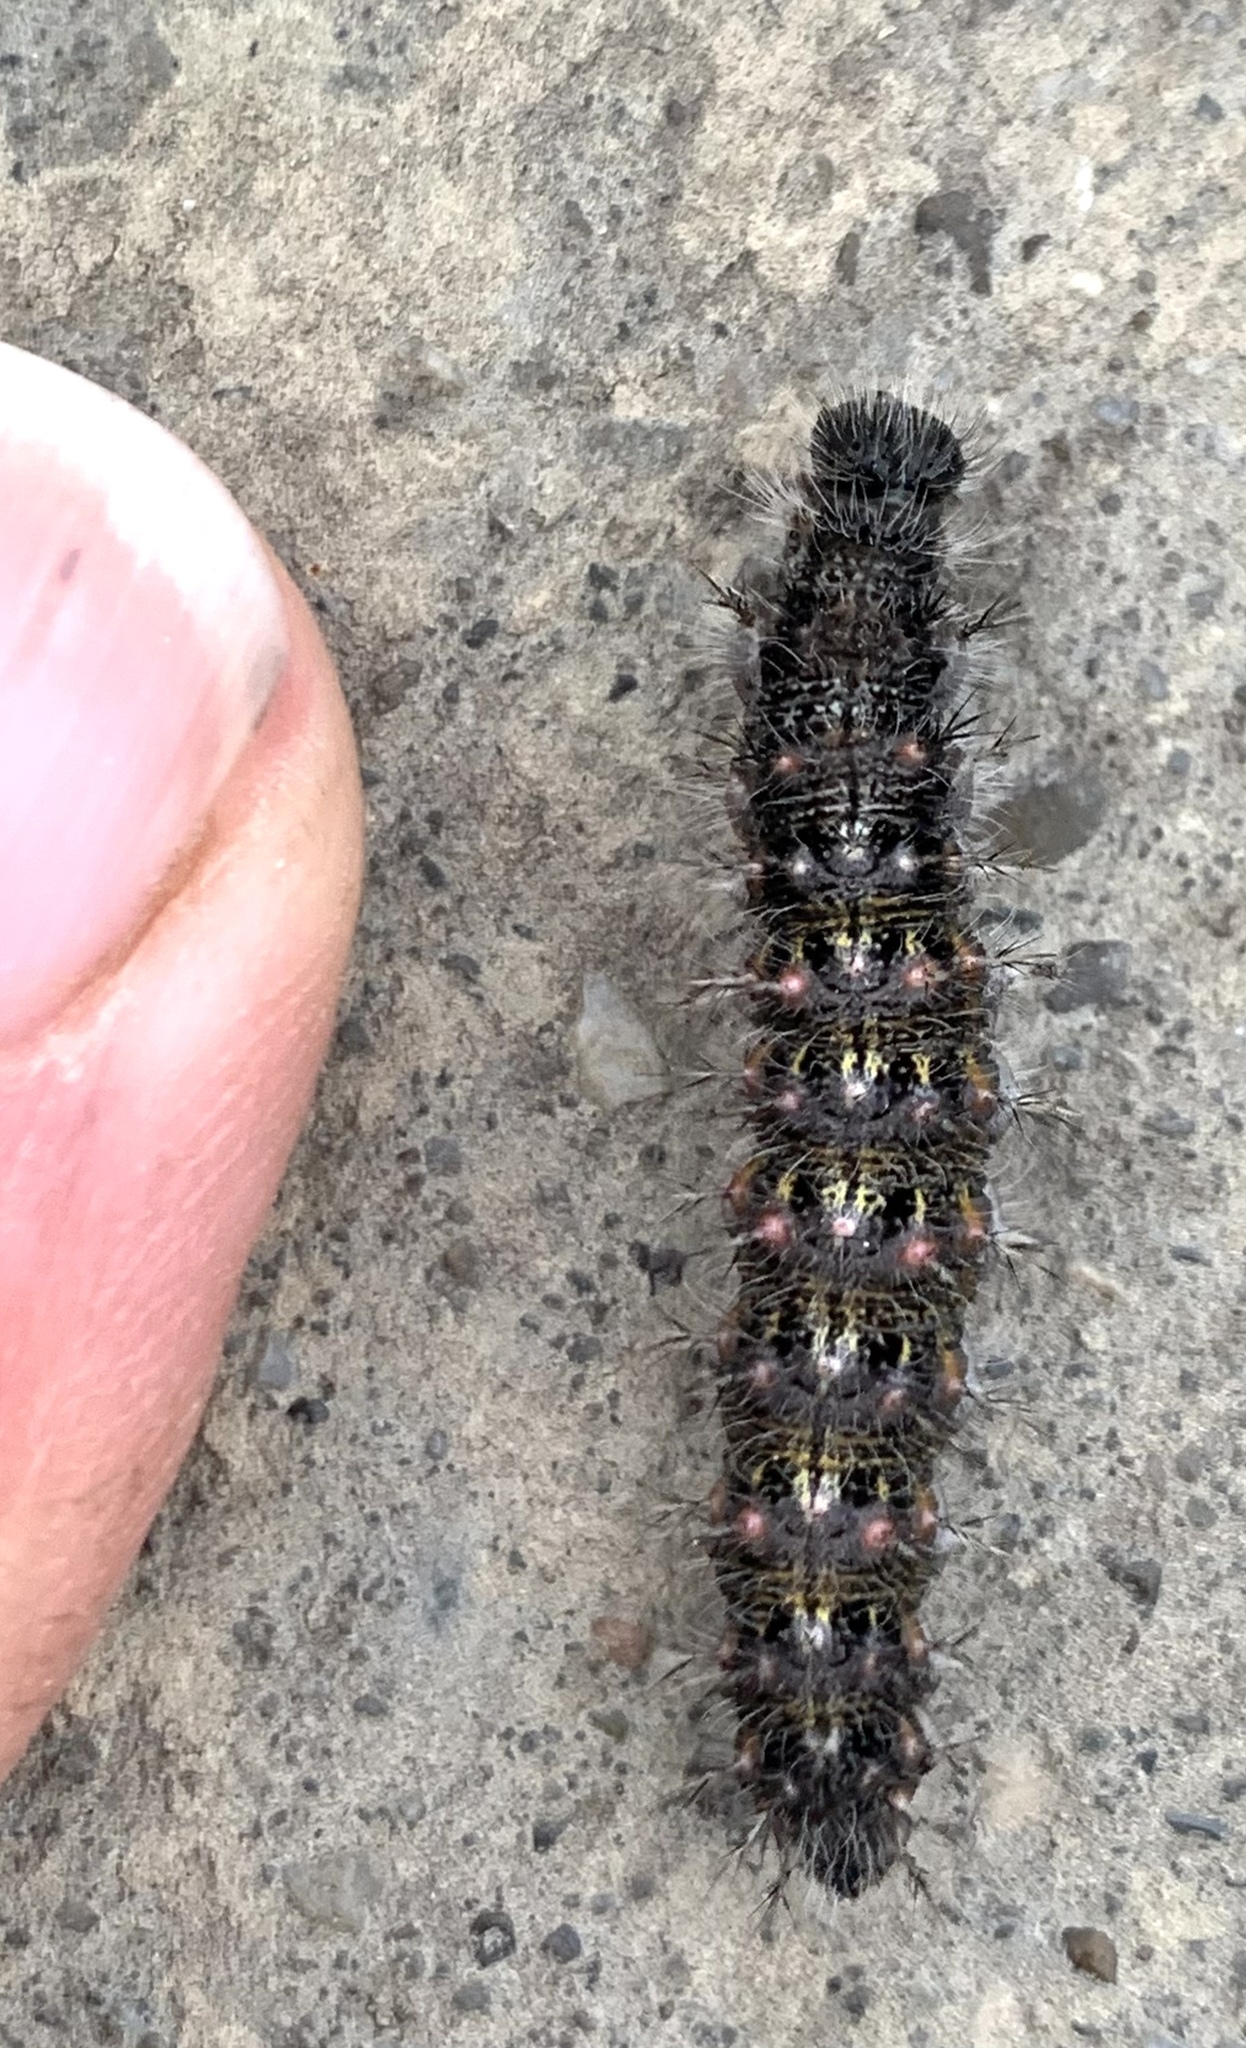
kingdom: Animalia
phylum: Arthropoda
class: Insecta
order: Lepidoptera
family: Nymphalidae
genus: Vanessa
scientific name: Vanessa atalanta
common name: Red admiral
